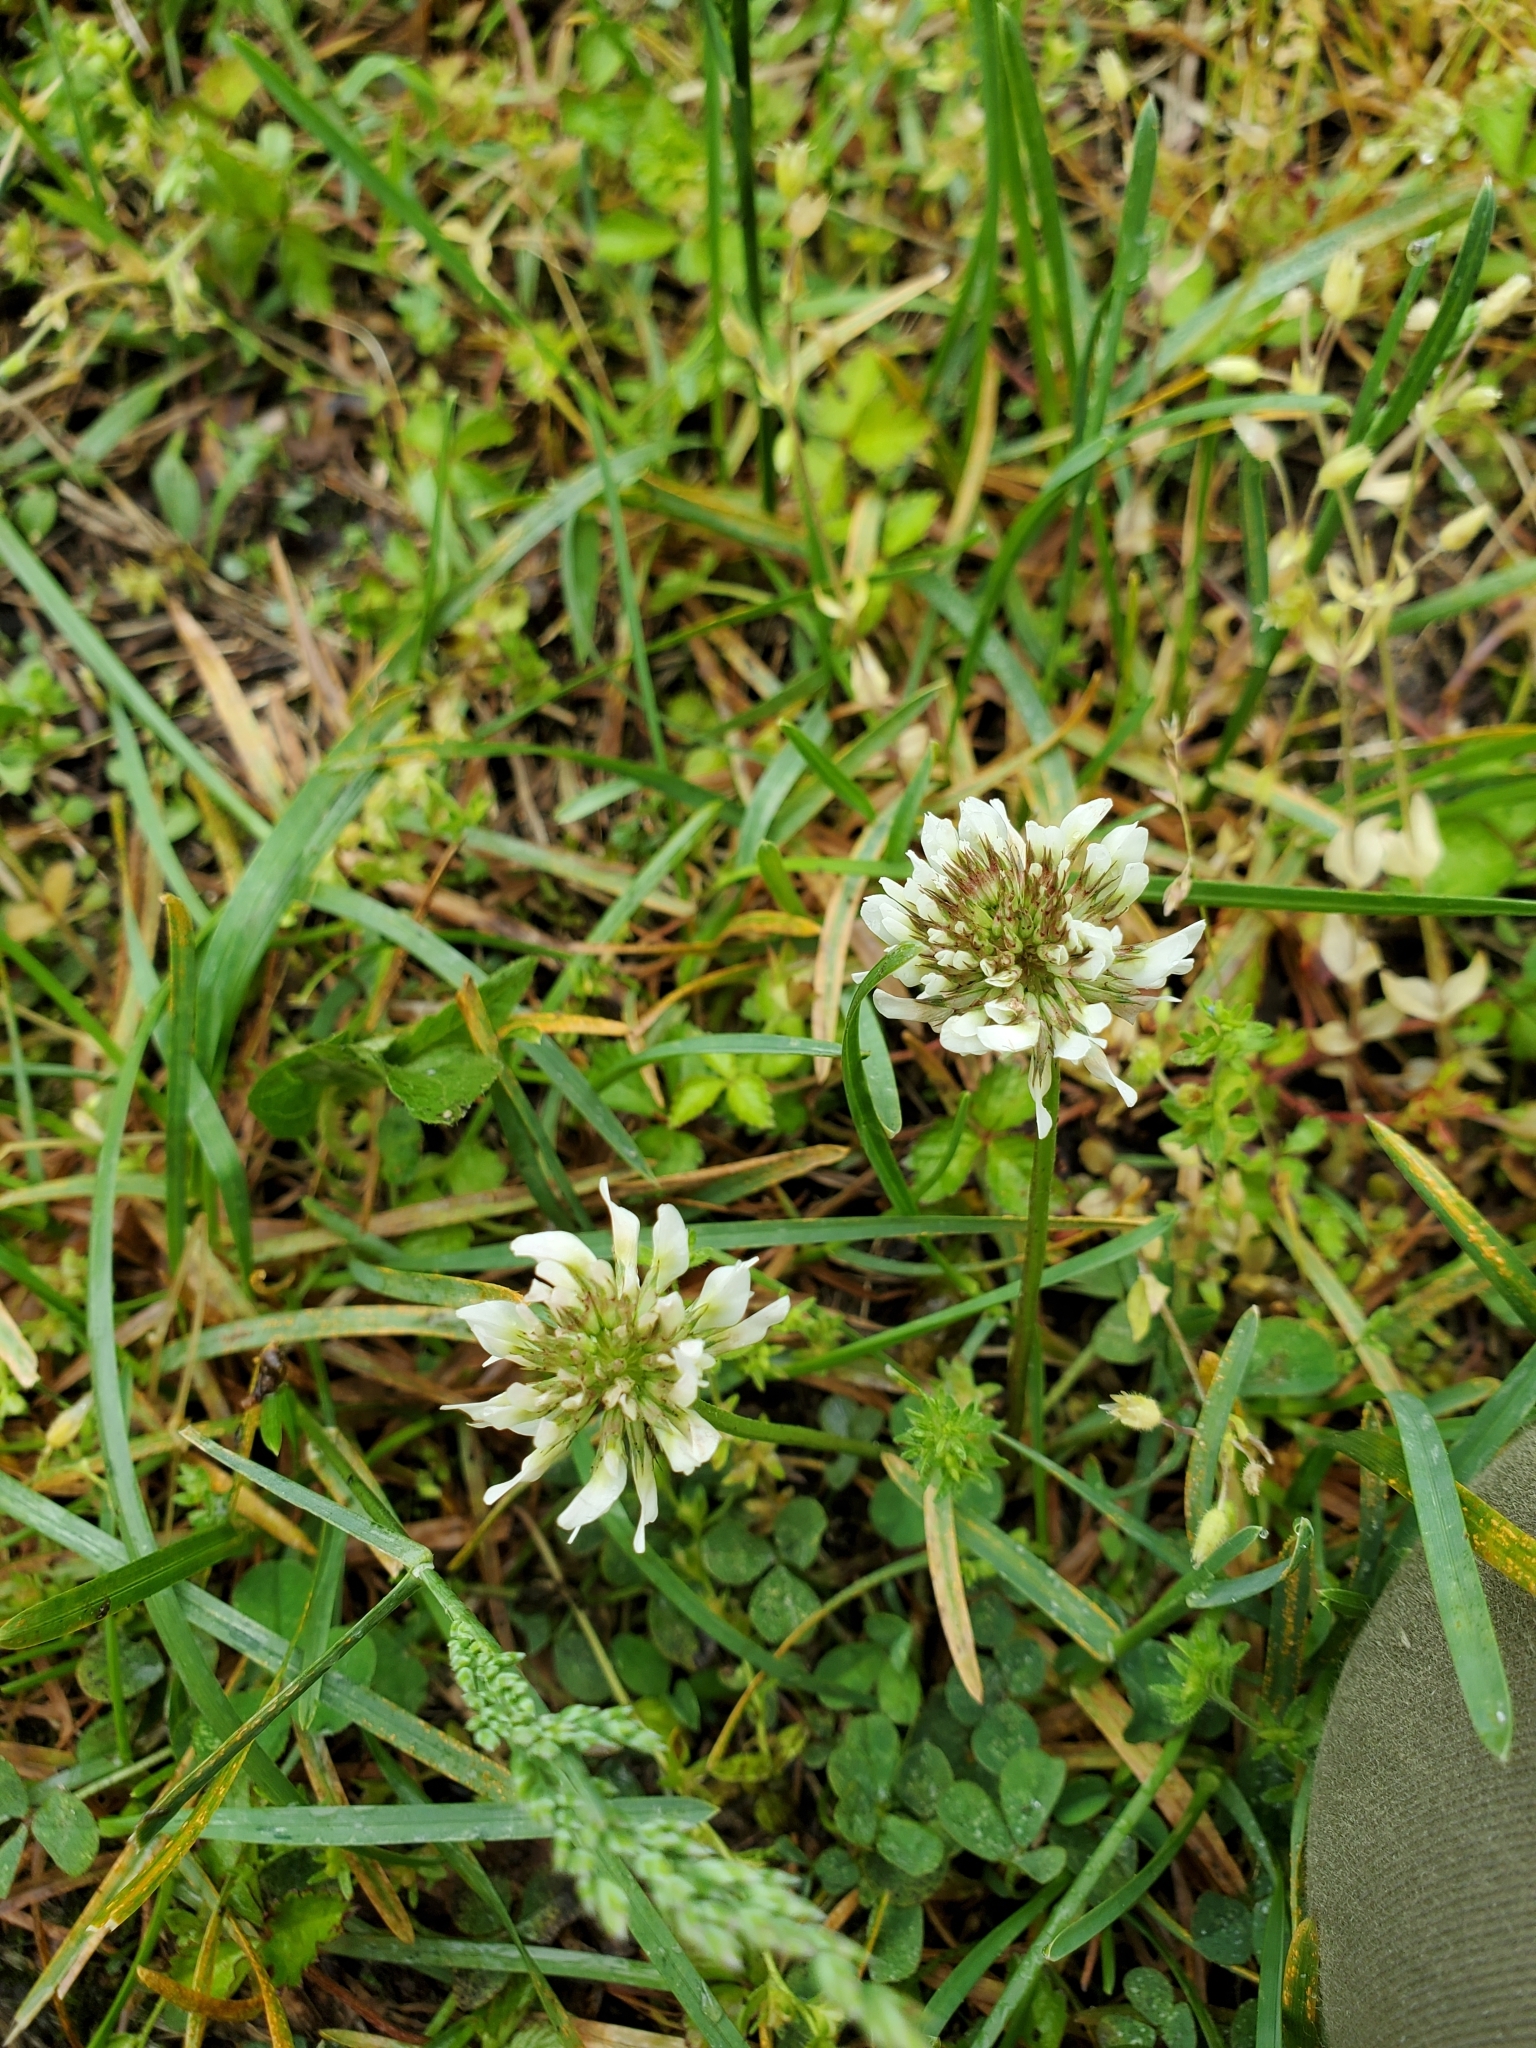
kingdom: Plantae
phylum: Tracheophyta
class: Magnoliopsida
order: Fabales
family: Fabaceae
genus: Trifolium
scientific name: Trifolium repens
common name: White clover
